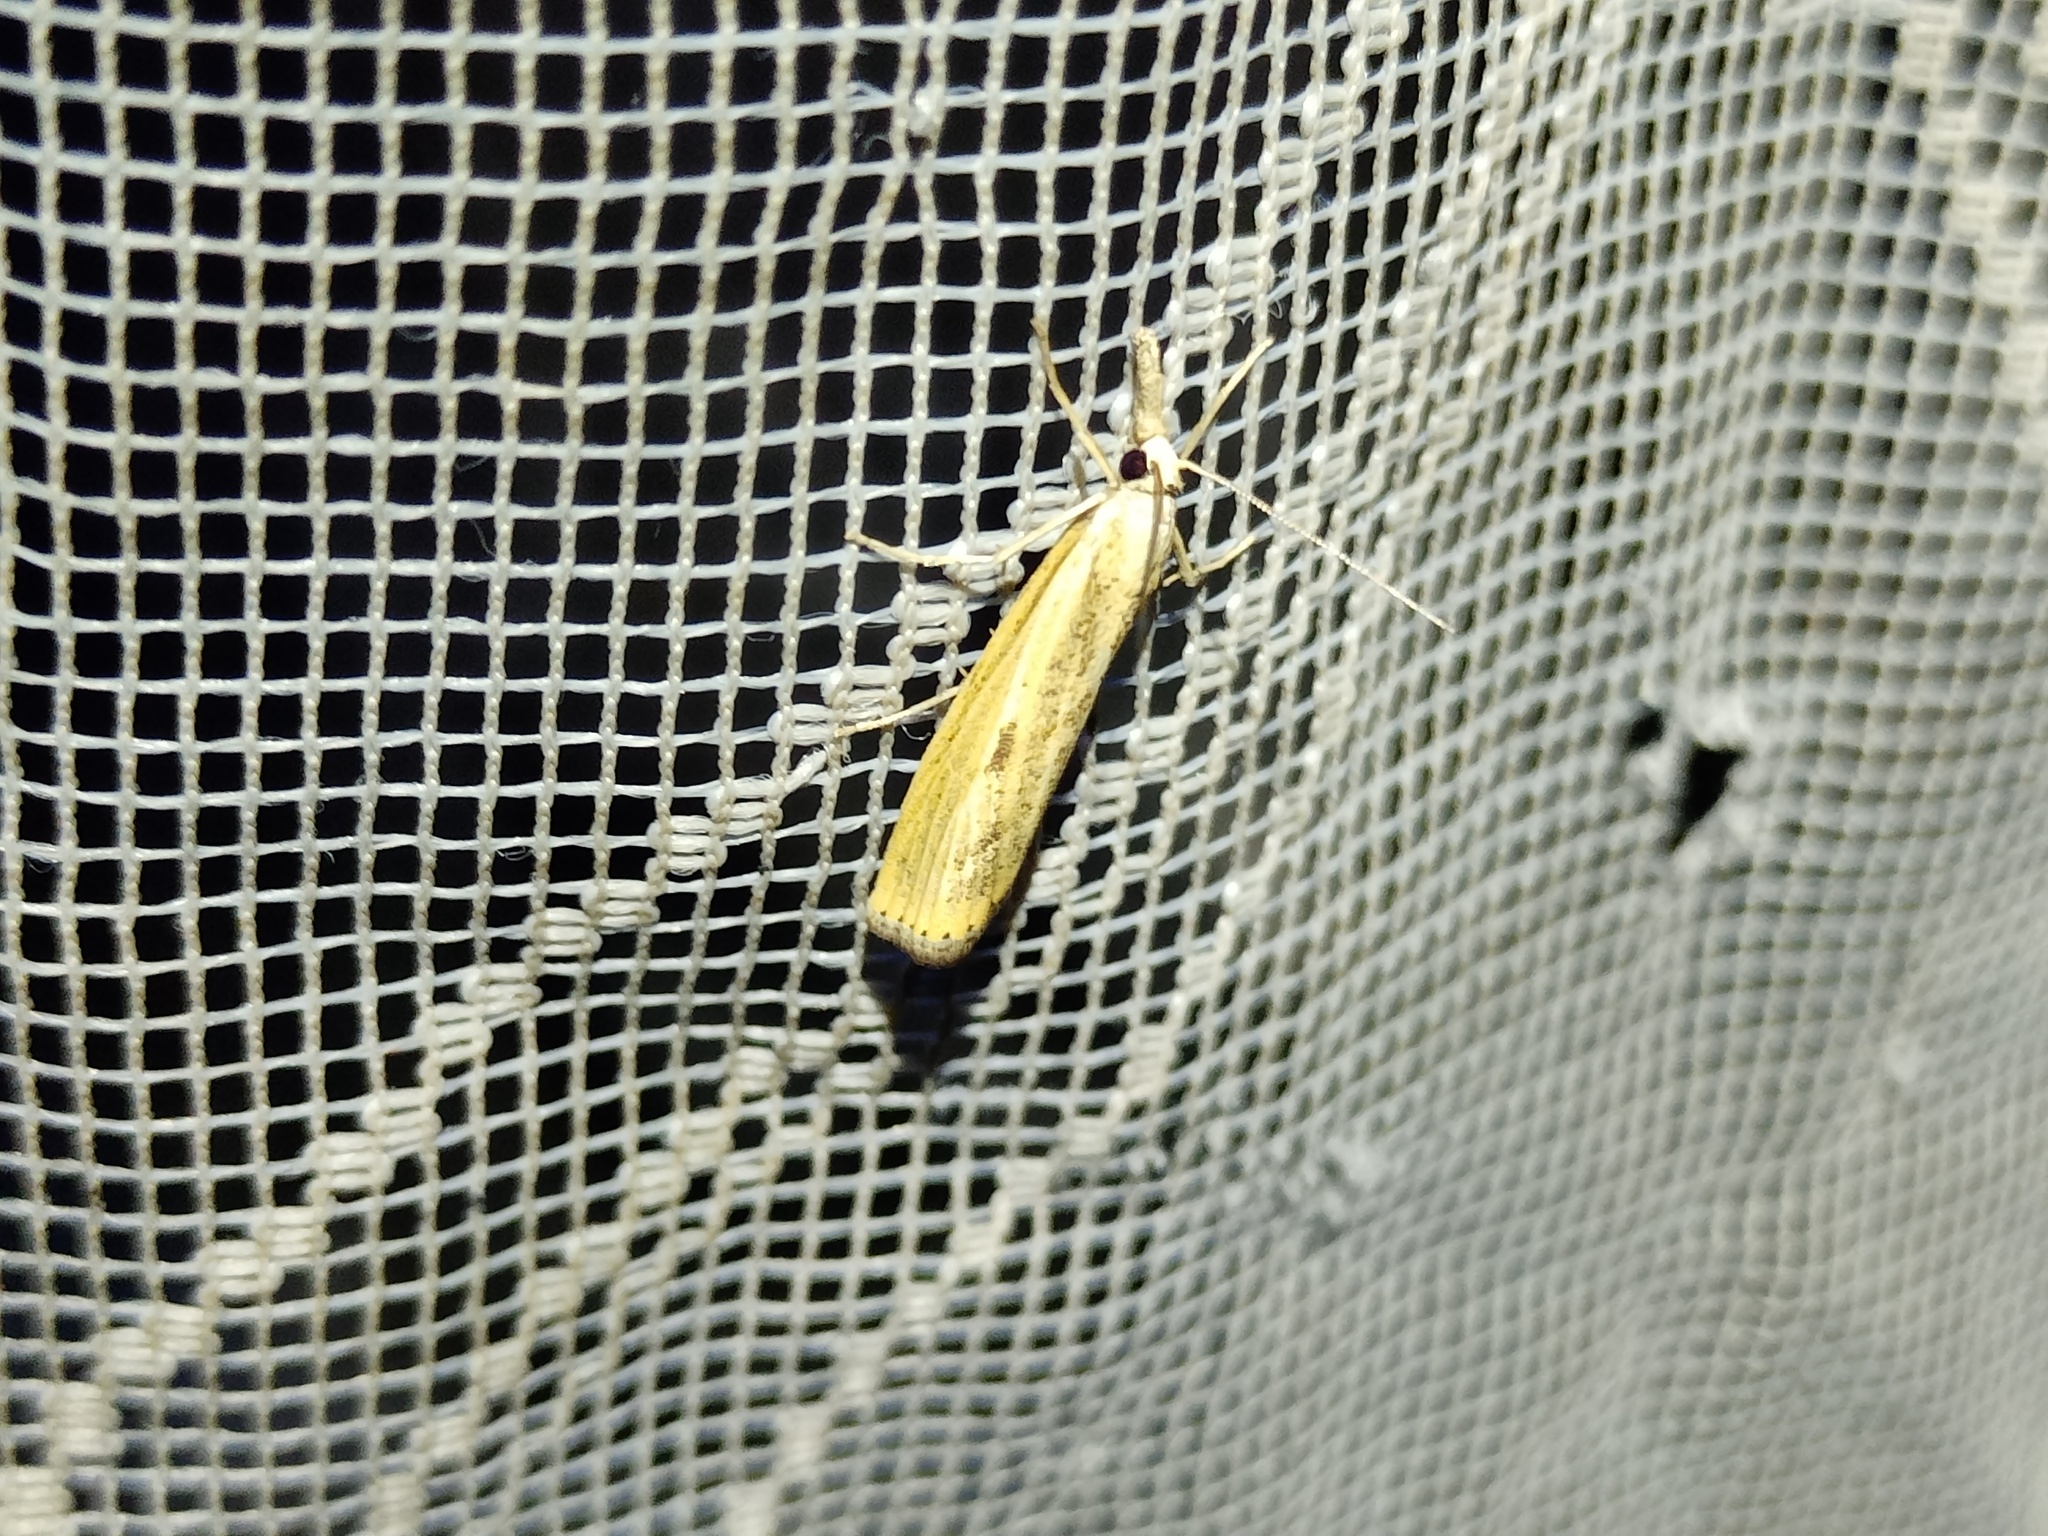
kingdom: Animalia
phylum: Arthropoda
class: Insecta
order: Lepidoptera
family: Crambidae
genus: Agriphila
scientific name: Agriphila inquinatella
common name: Barred grass-veneer
